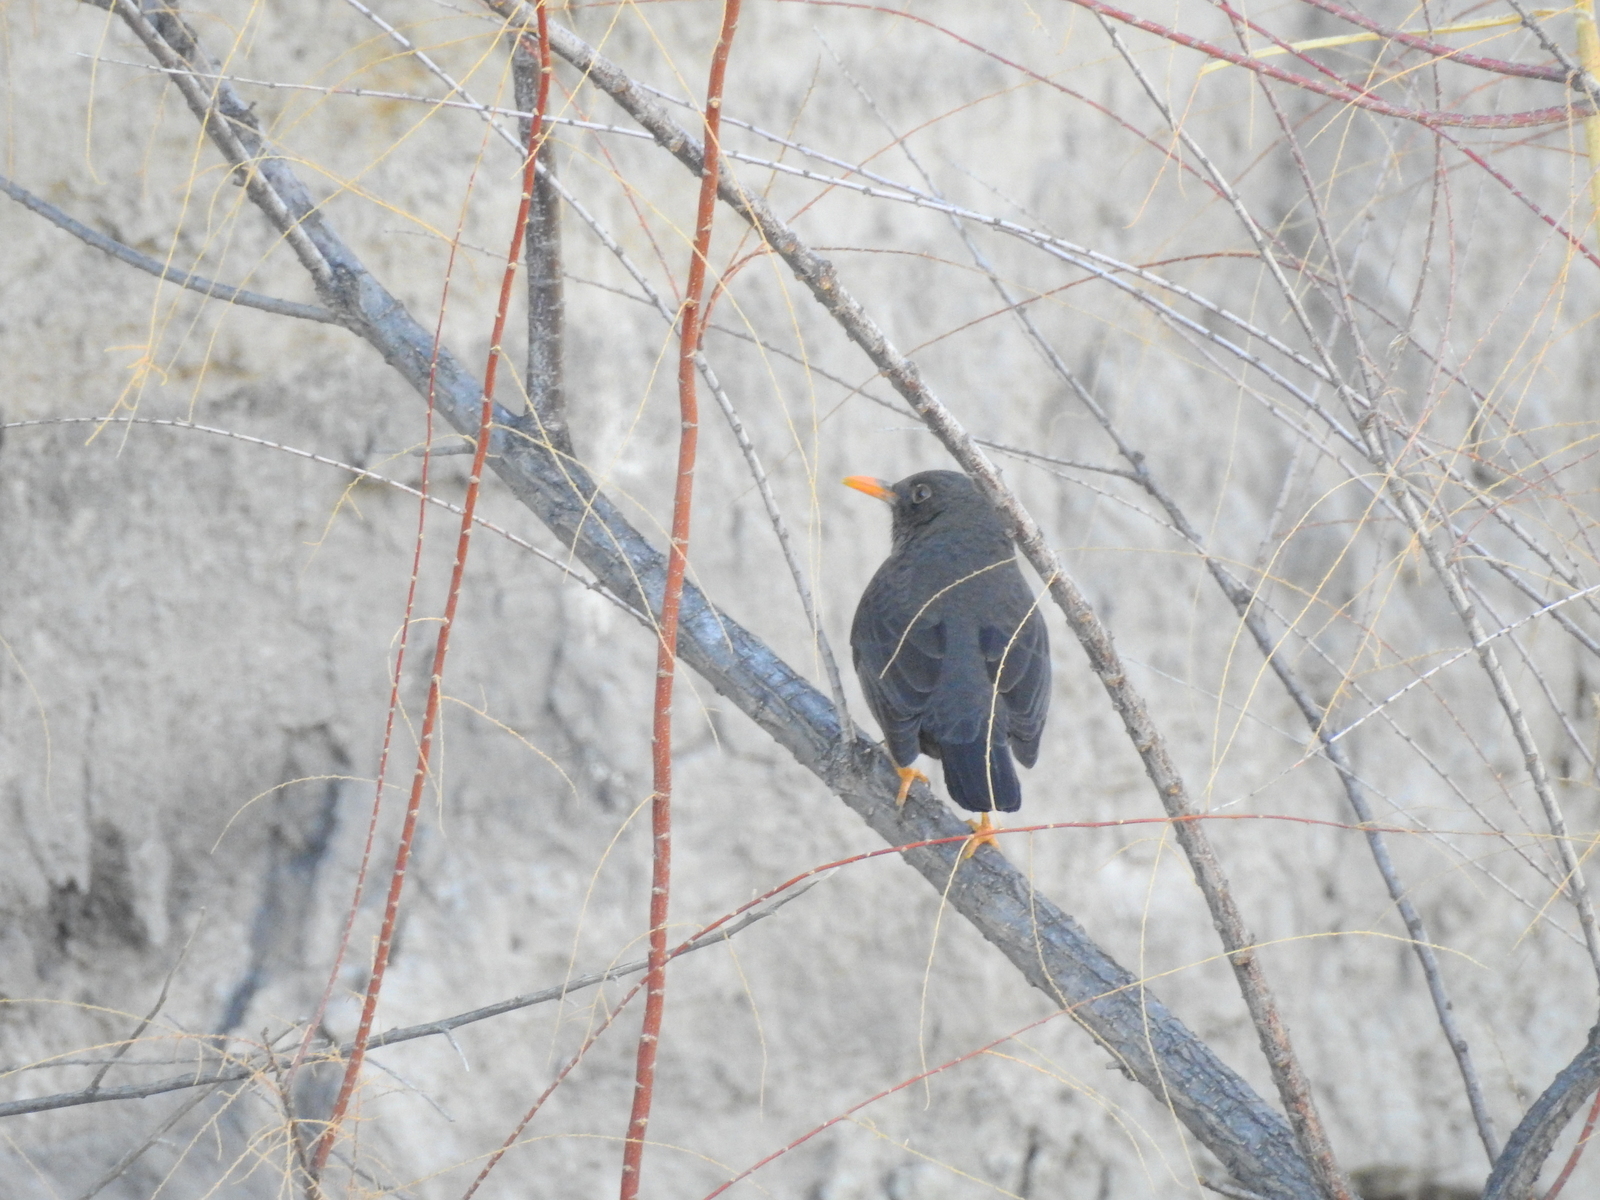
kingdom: Animalia
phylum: Chordata
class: Aves
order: Passeriformes
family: Turdidae
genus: Turdus
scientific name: Turdus chiguanco
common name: Chiguanco thrush
